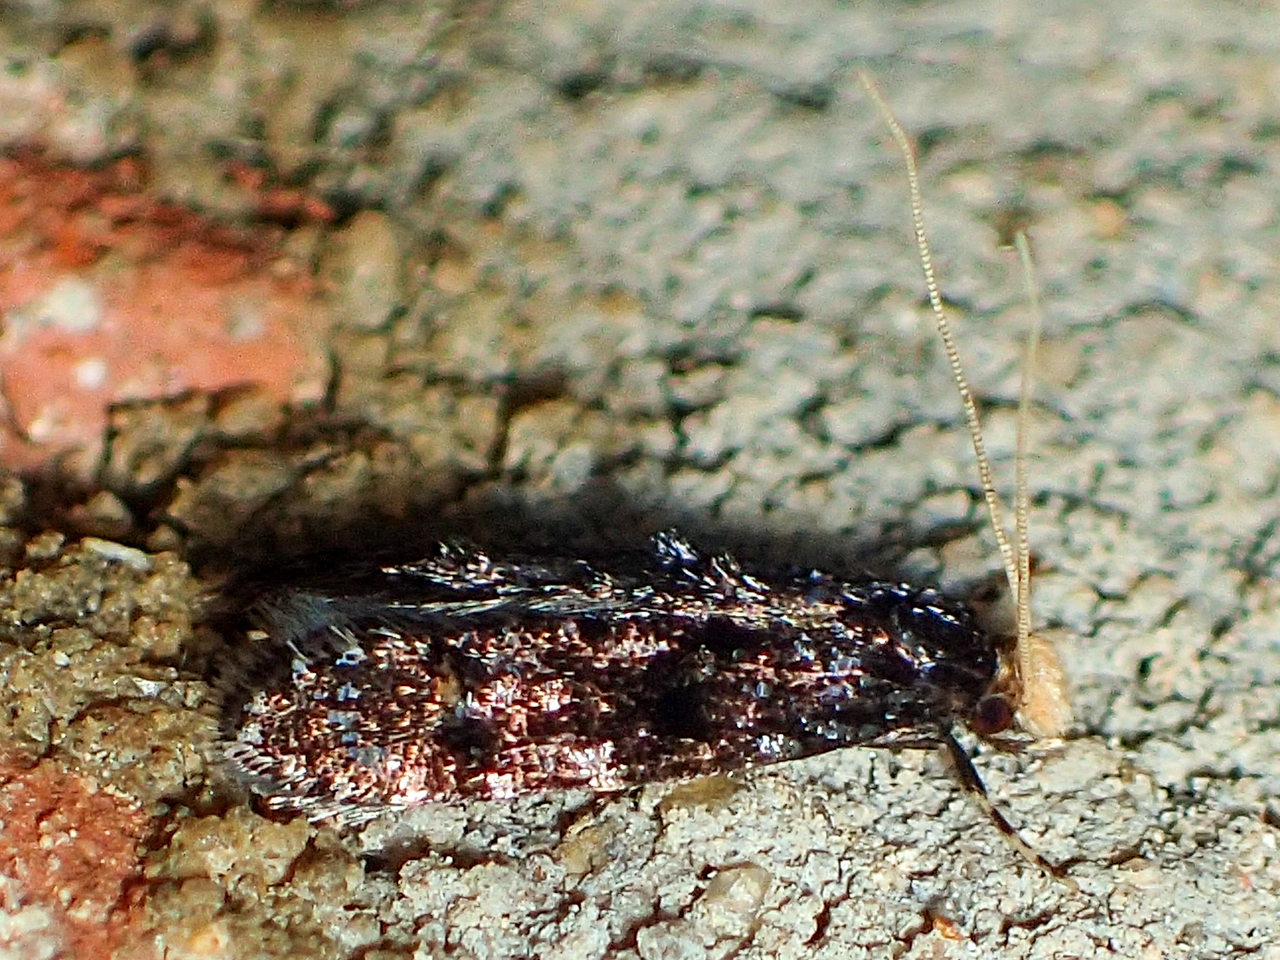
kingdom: Animalia
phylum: Arthropoda
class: Insecta
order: Lepidoptera
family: Meessiidae
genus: Homosetia
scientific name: Homosetia bifasciella
